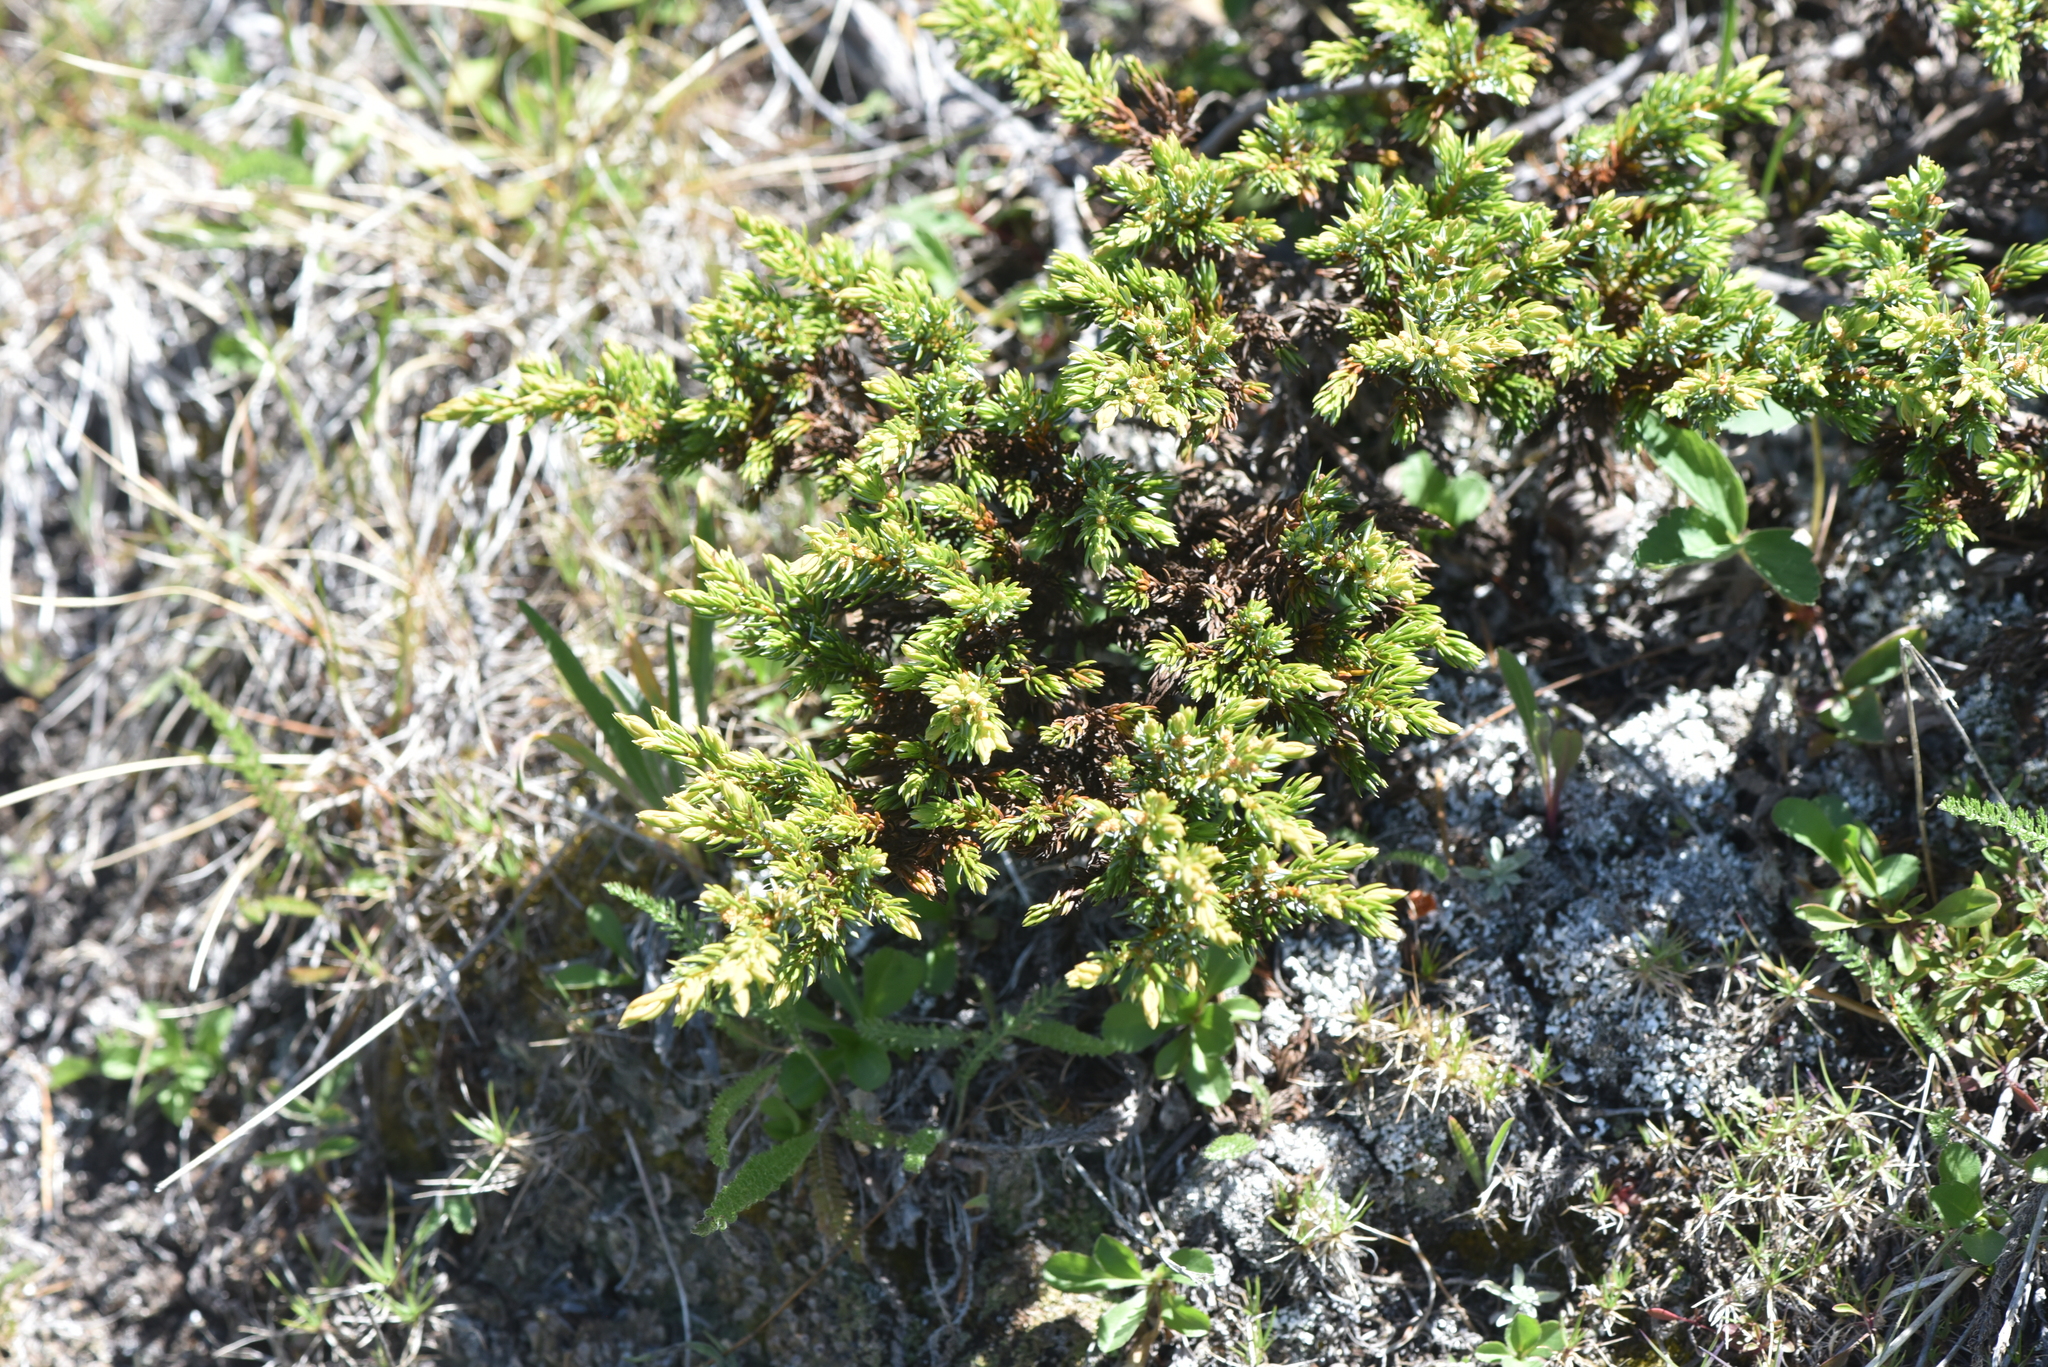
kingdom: Plantae
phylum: Tracheophyta
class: Pinopsida
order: Pinales
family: Cupressaceae
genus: Juniperus
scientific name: Juniperus communis
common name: Common juniper
